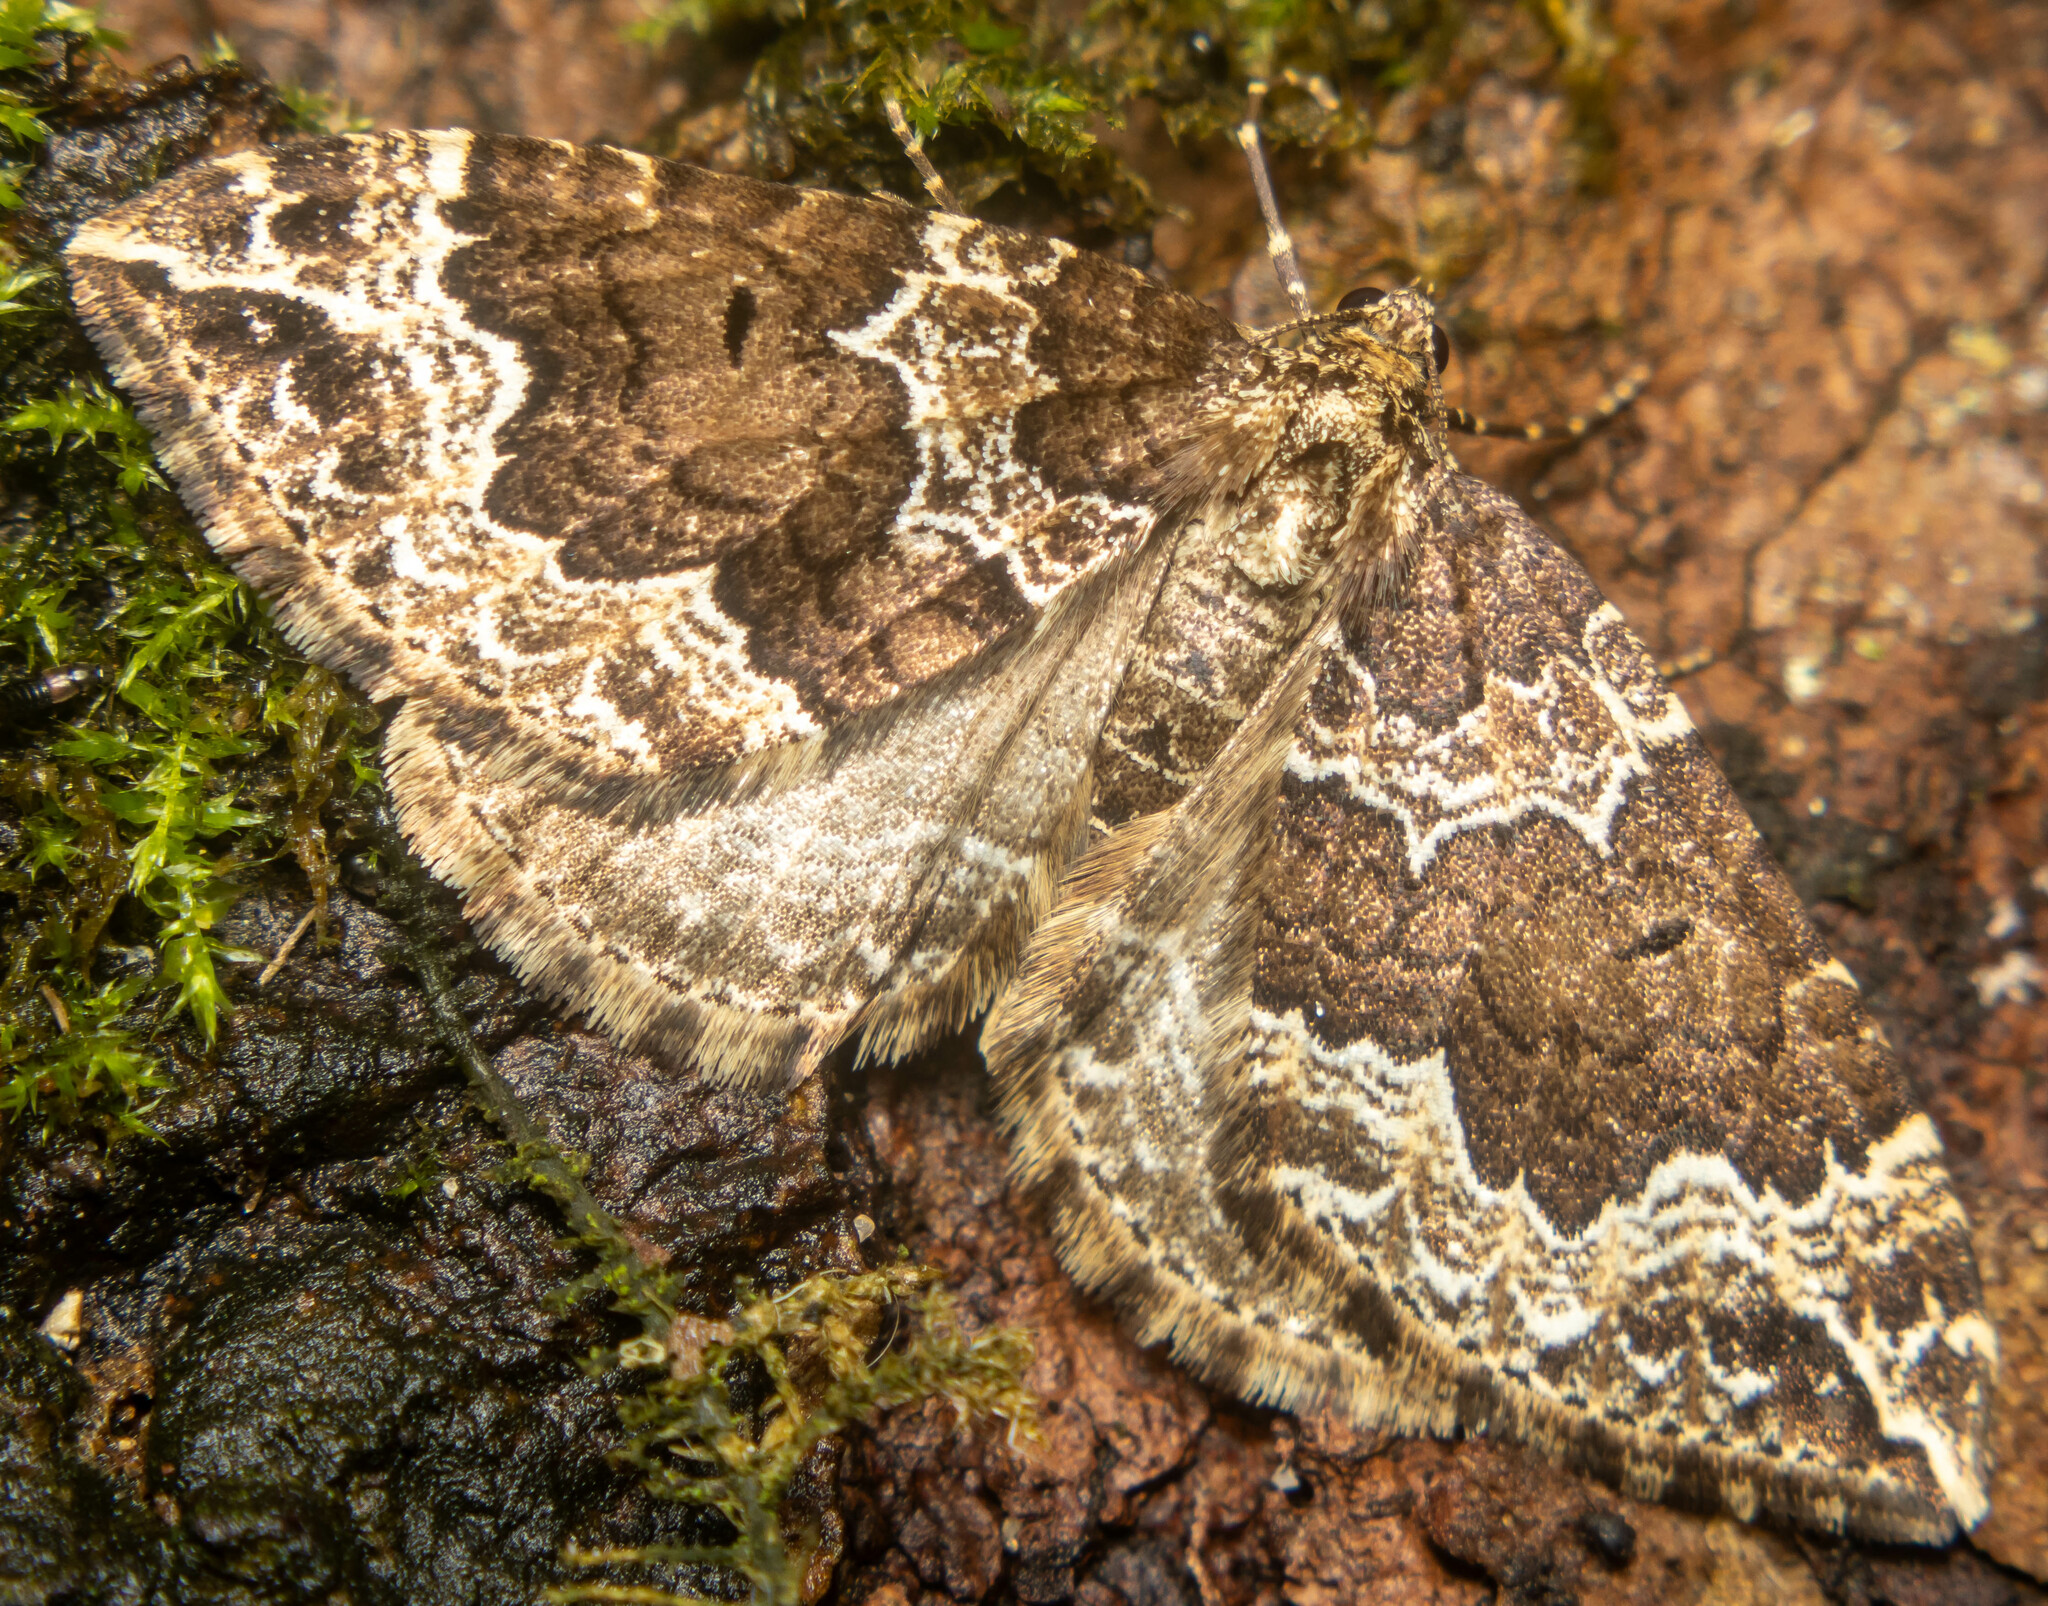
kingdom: Animalia
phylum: Arthropoda
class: Insecta
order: Lepidoptera
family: Geometridae
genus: Lampropteryx
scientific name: Lampropteryx suffumata
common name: Water carpet
